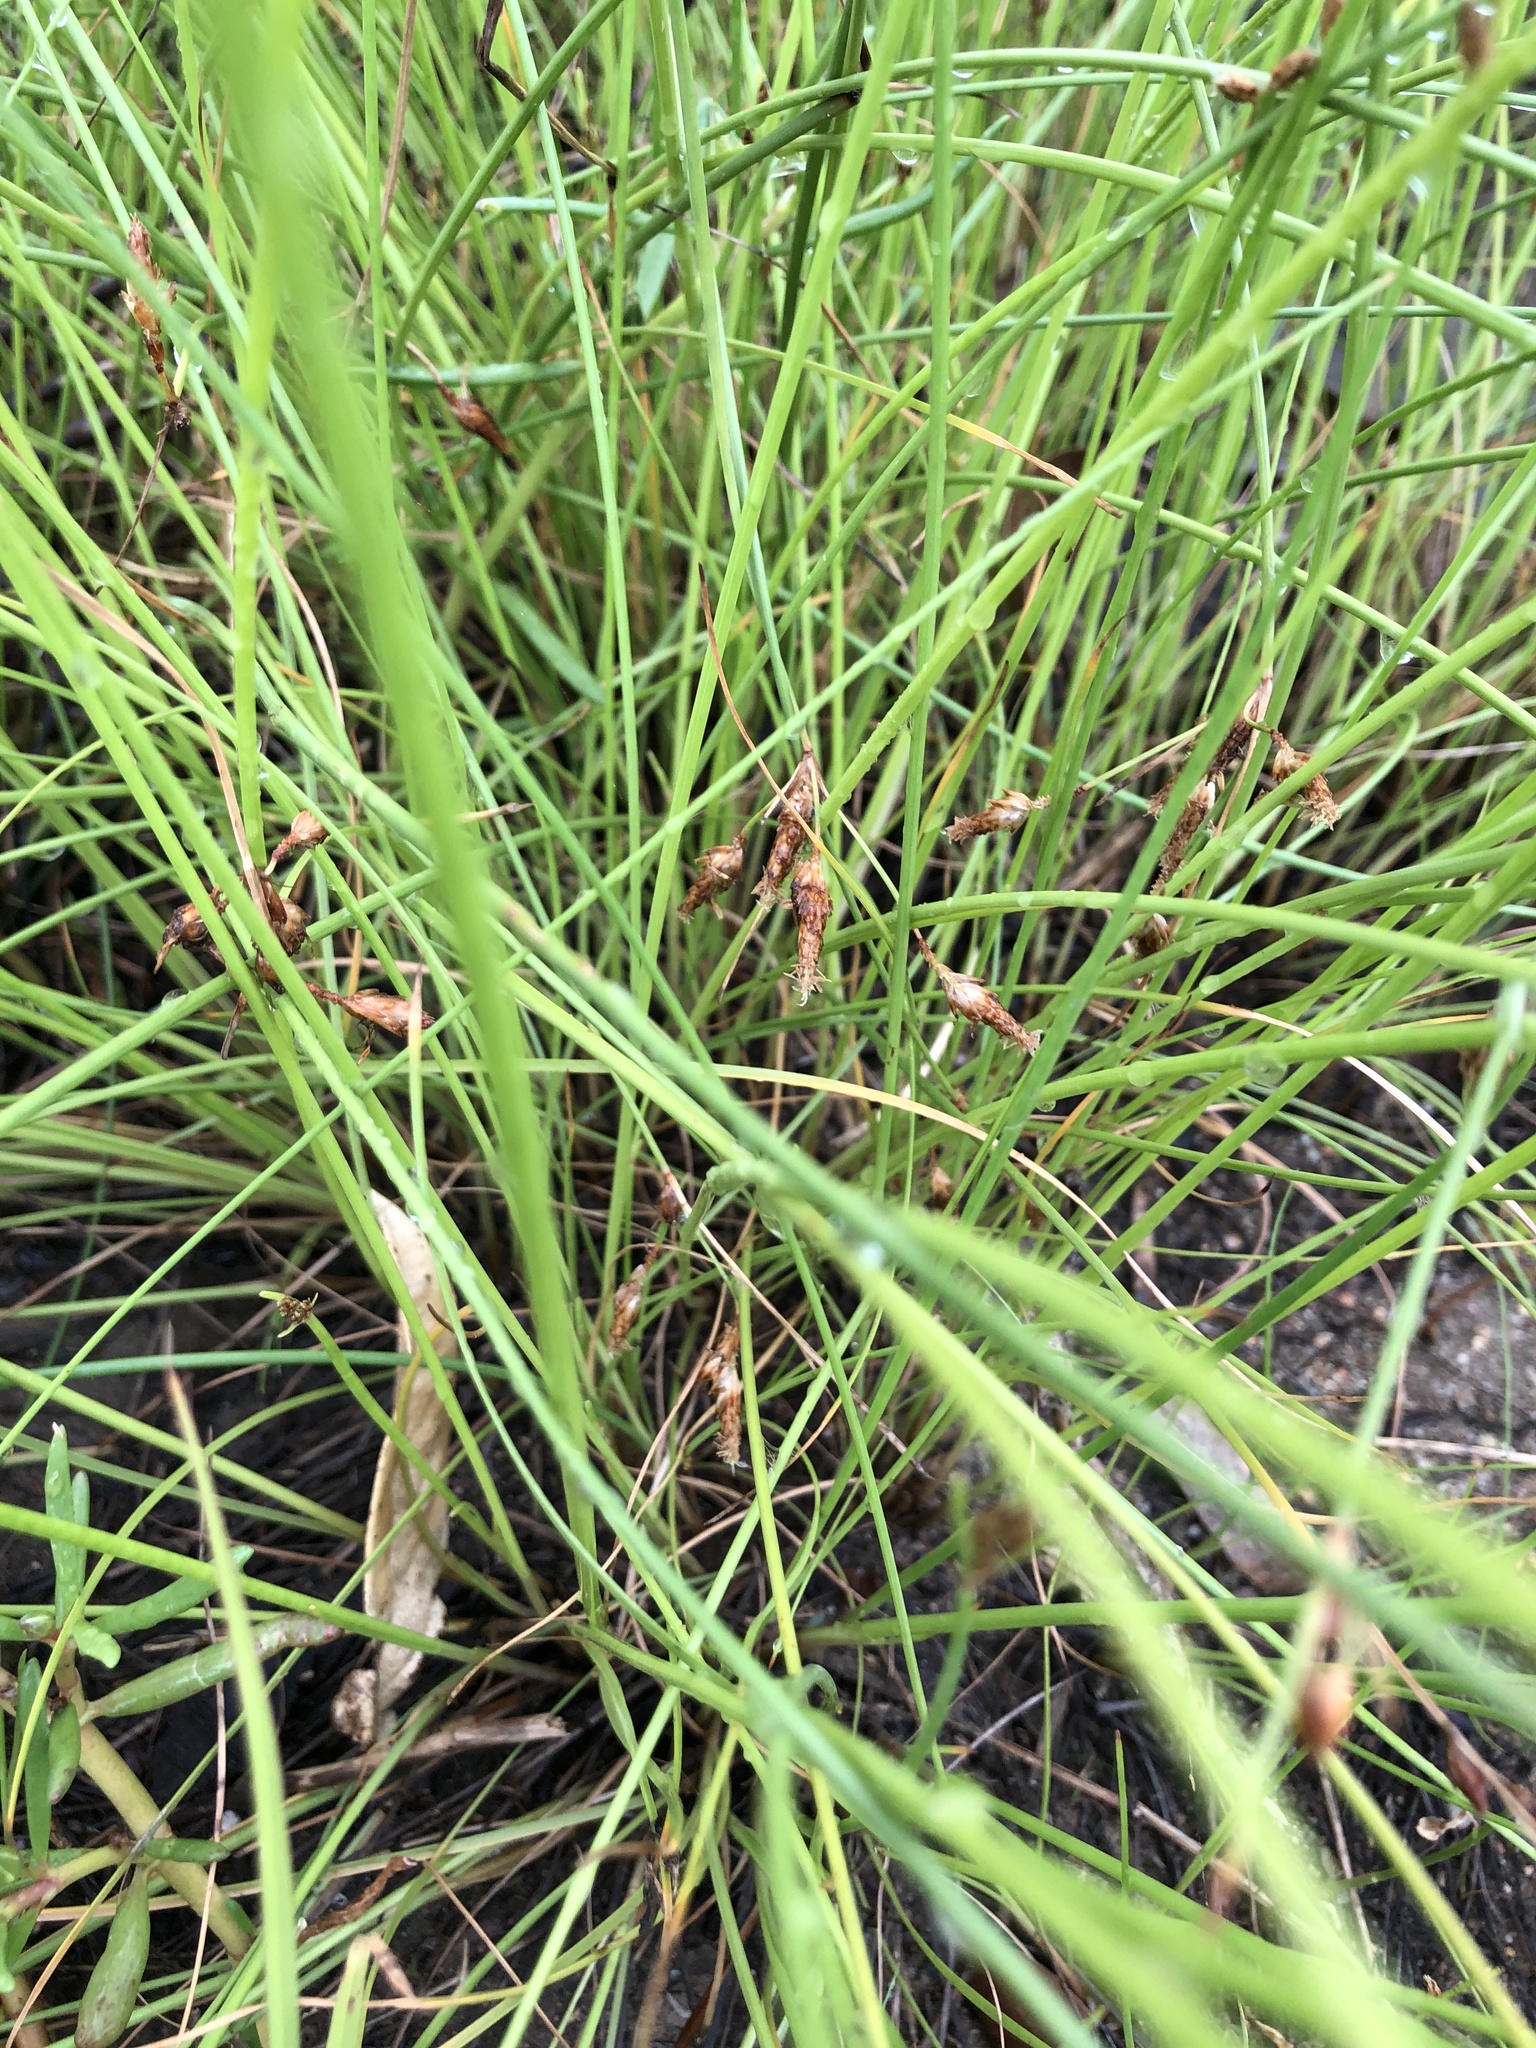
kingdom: Plantae
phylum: Tracheophyta
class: Liliopsida
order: Poales
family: Cyperaceae
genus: Fimbristylis
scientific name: Fimbristylis ferruginea
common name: West indian fimbry
